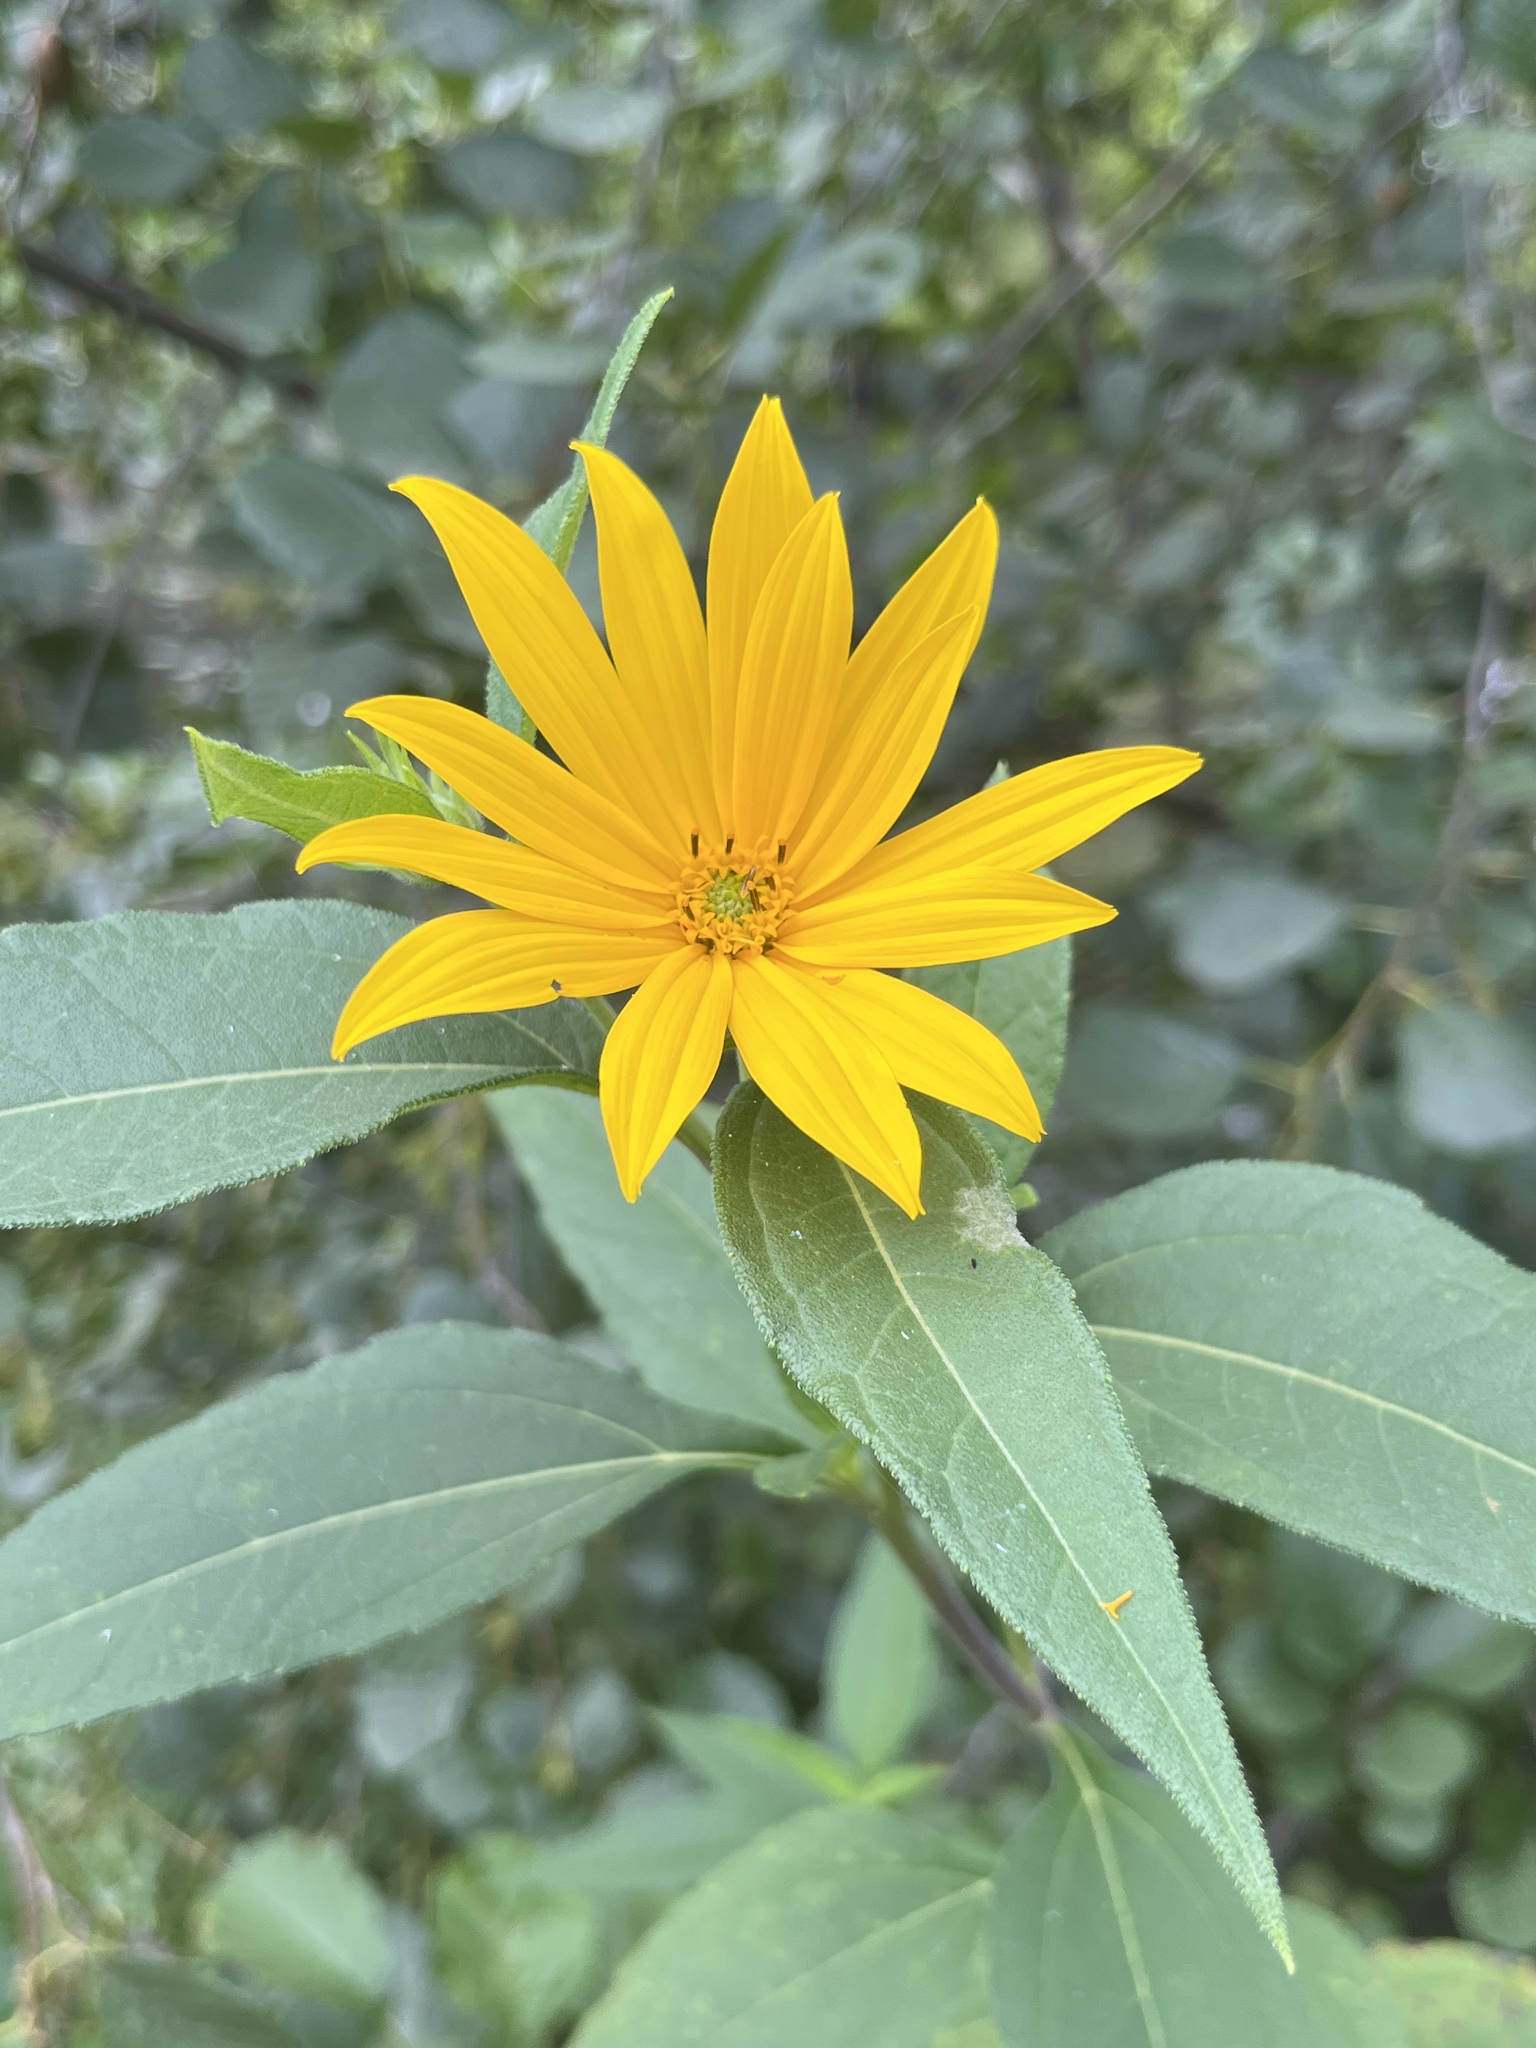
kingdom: Plantae
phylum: Tracheophyta
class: Magnoliopsida
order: Asterales
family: Asteraceae
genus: Helianthus
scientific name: Helianthus tuberosus
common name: Jerusalem artichoke
